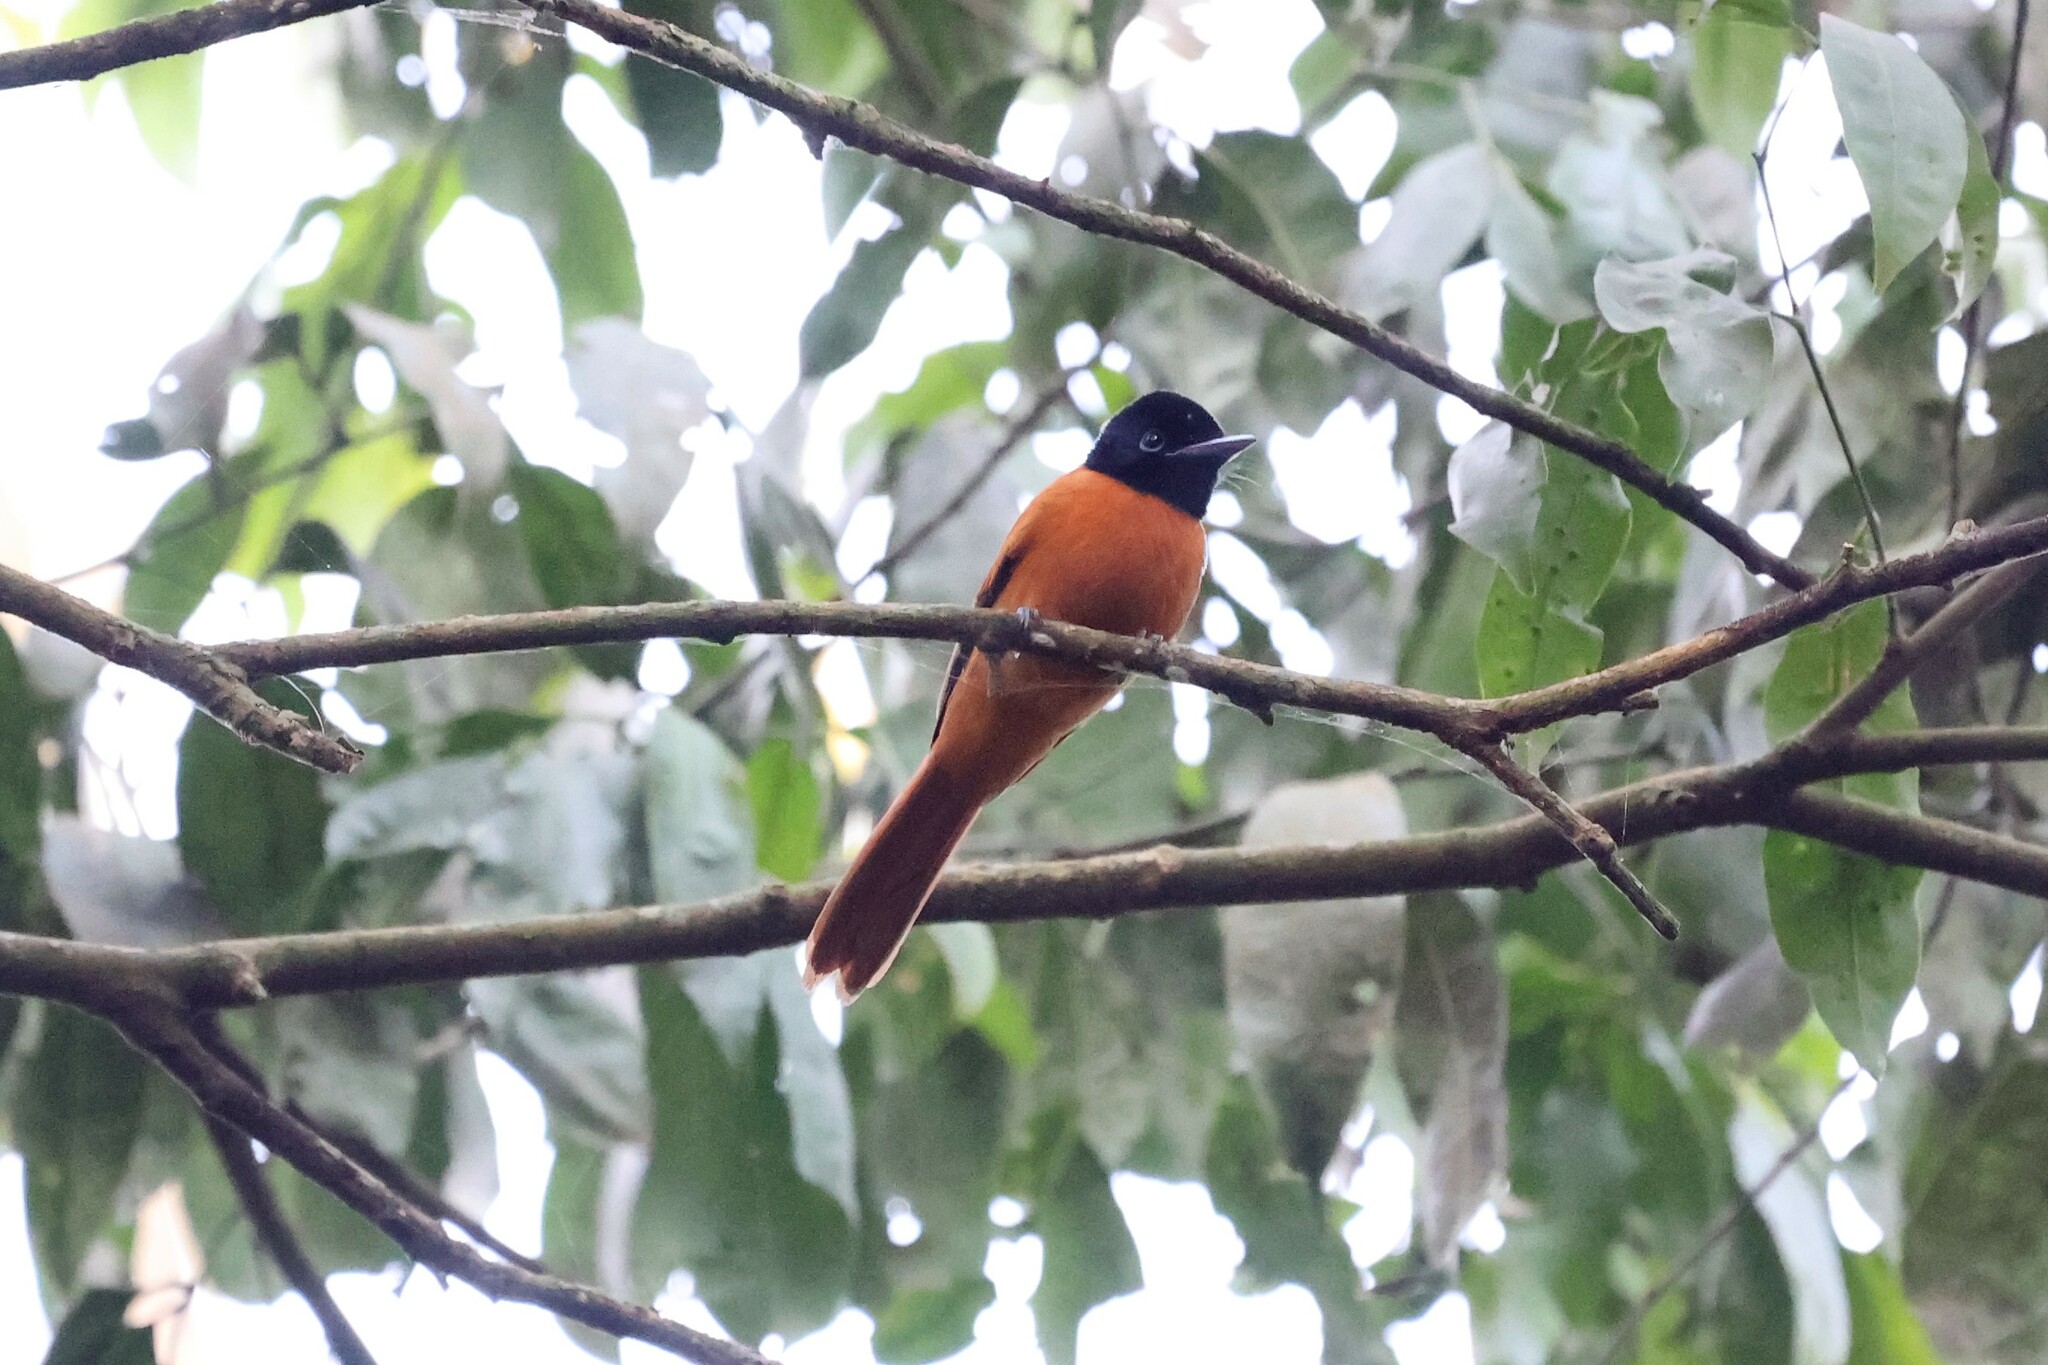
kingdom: Animalia
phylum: Chordata
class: Aves
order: Passeriformes
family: Monarchidae
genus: Terpsiphone
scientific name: Terpsiphone rufiventer
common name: Red-bellied paradise flycatcher
